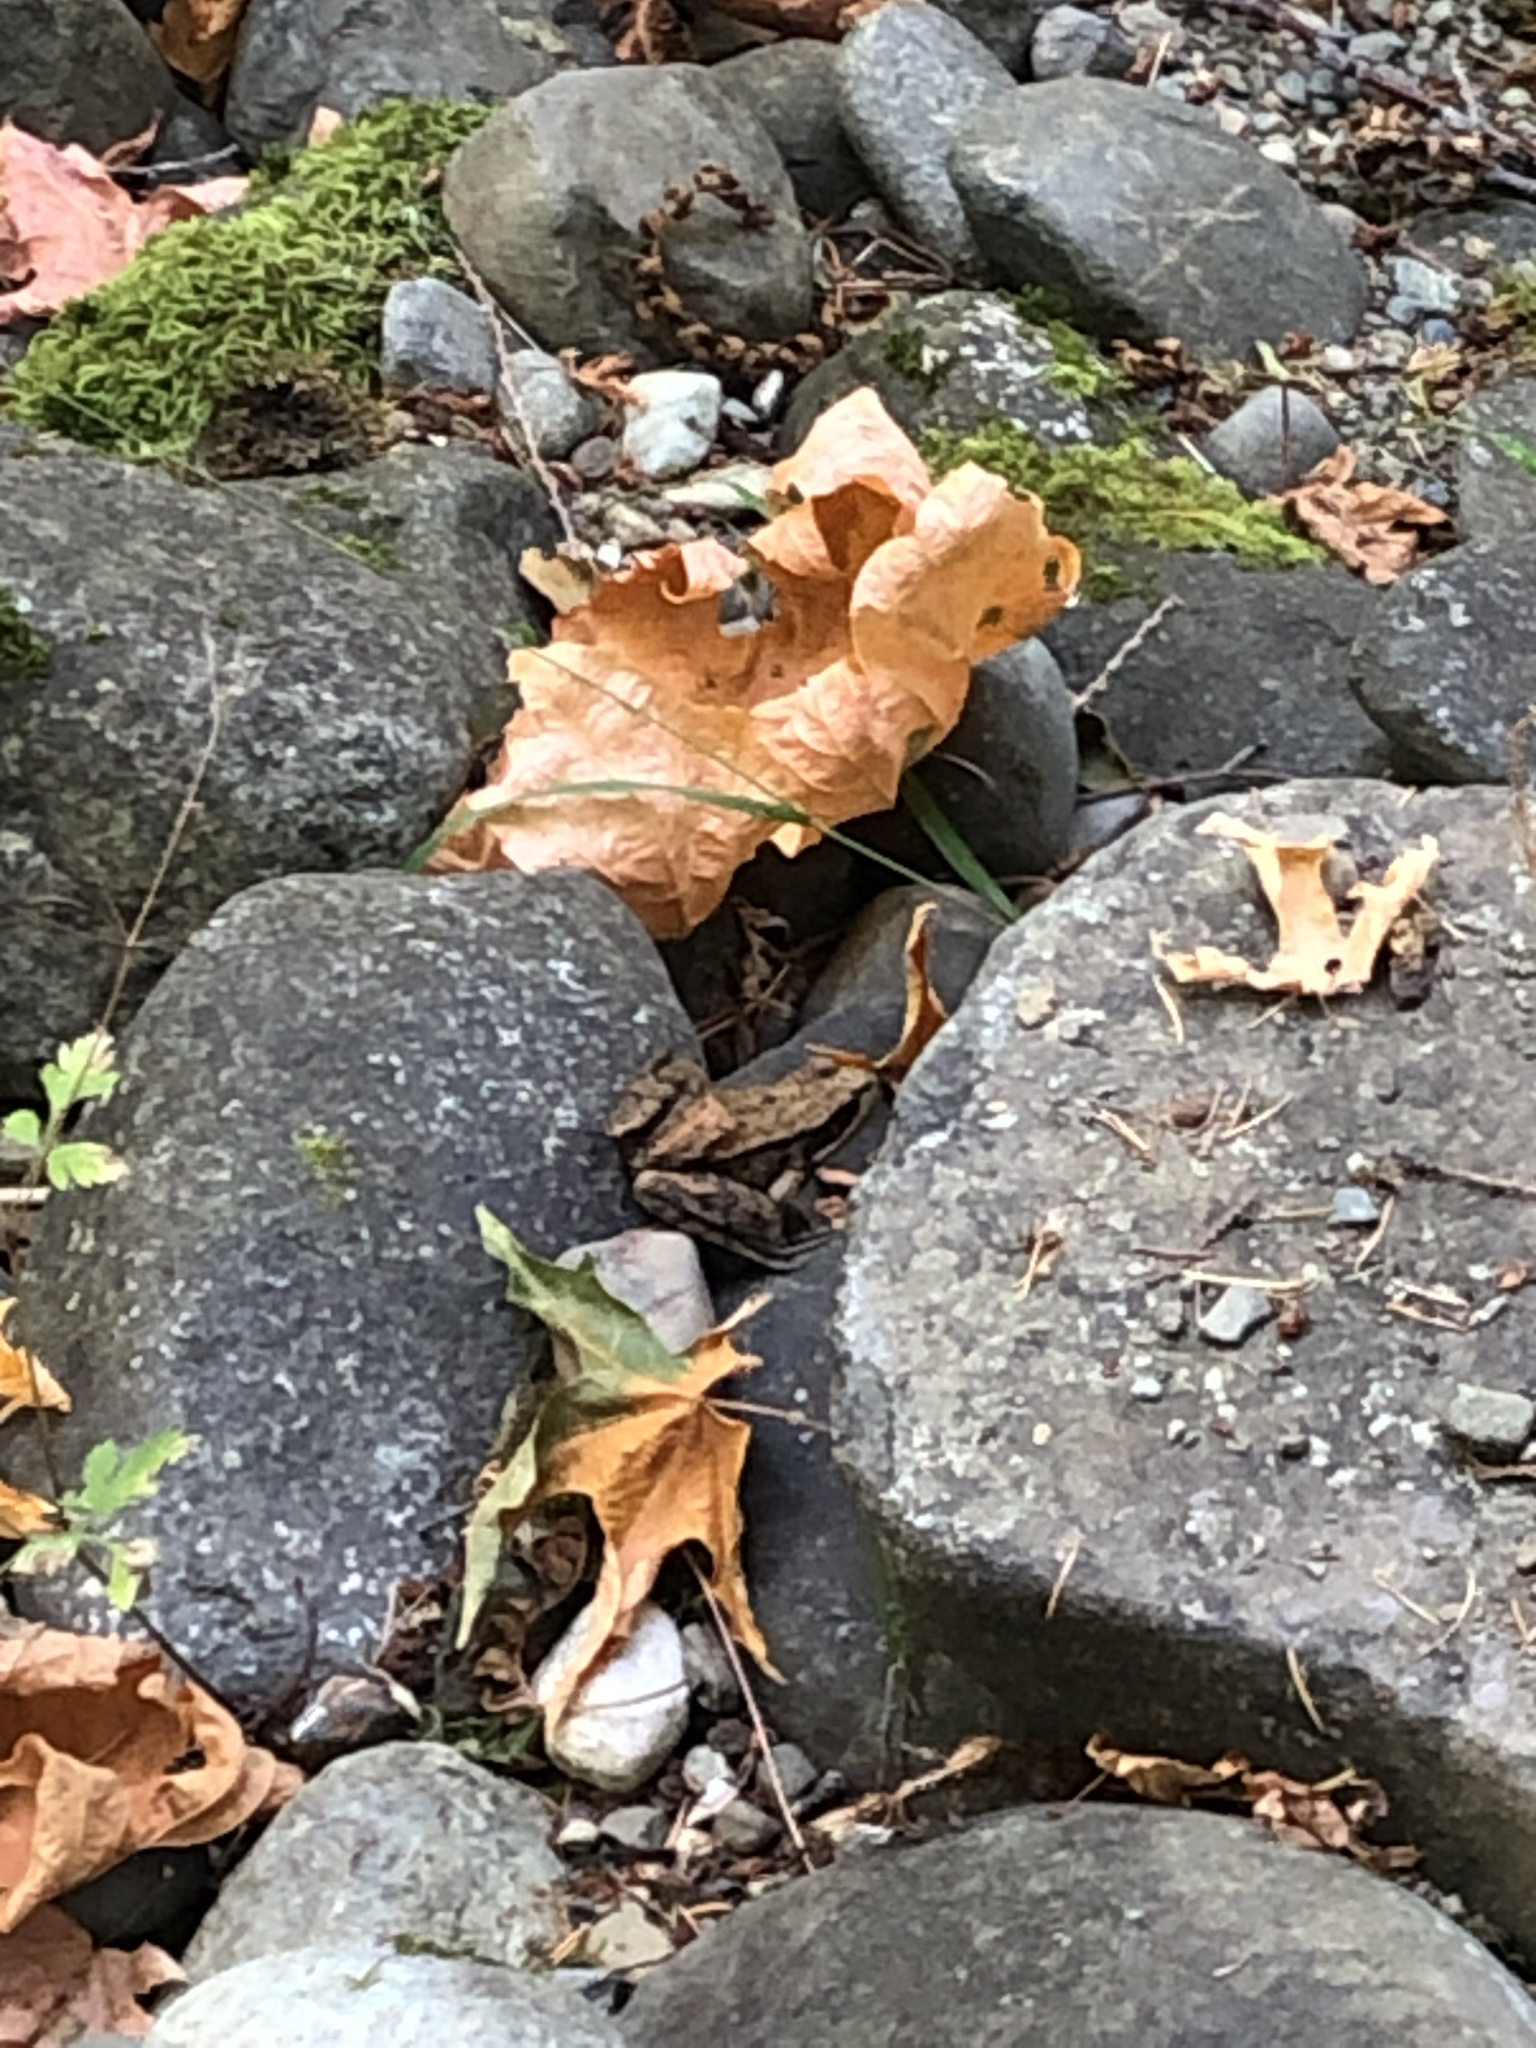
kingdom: Animalia
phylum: Chordata
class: Amphibia
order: Anura
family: Ranidae
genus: Rana
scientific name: Rana aurora
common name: Red-legged frog
